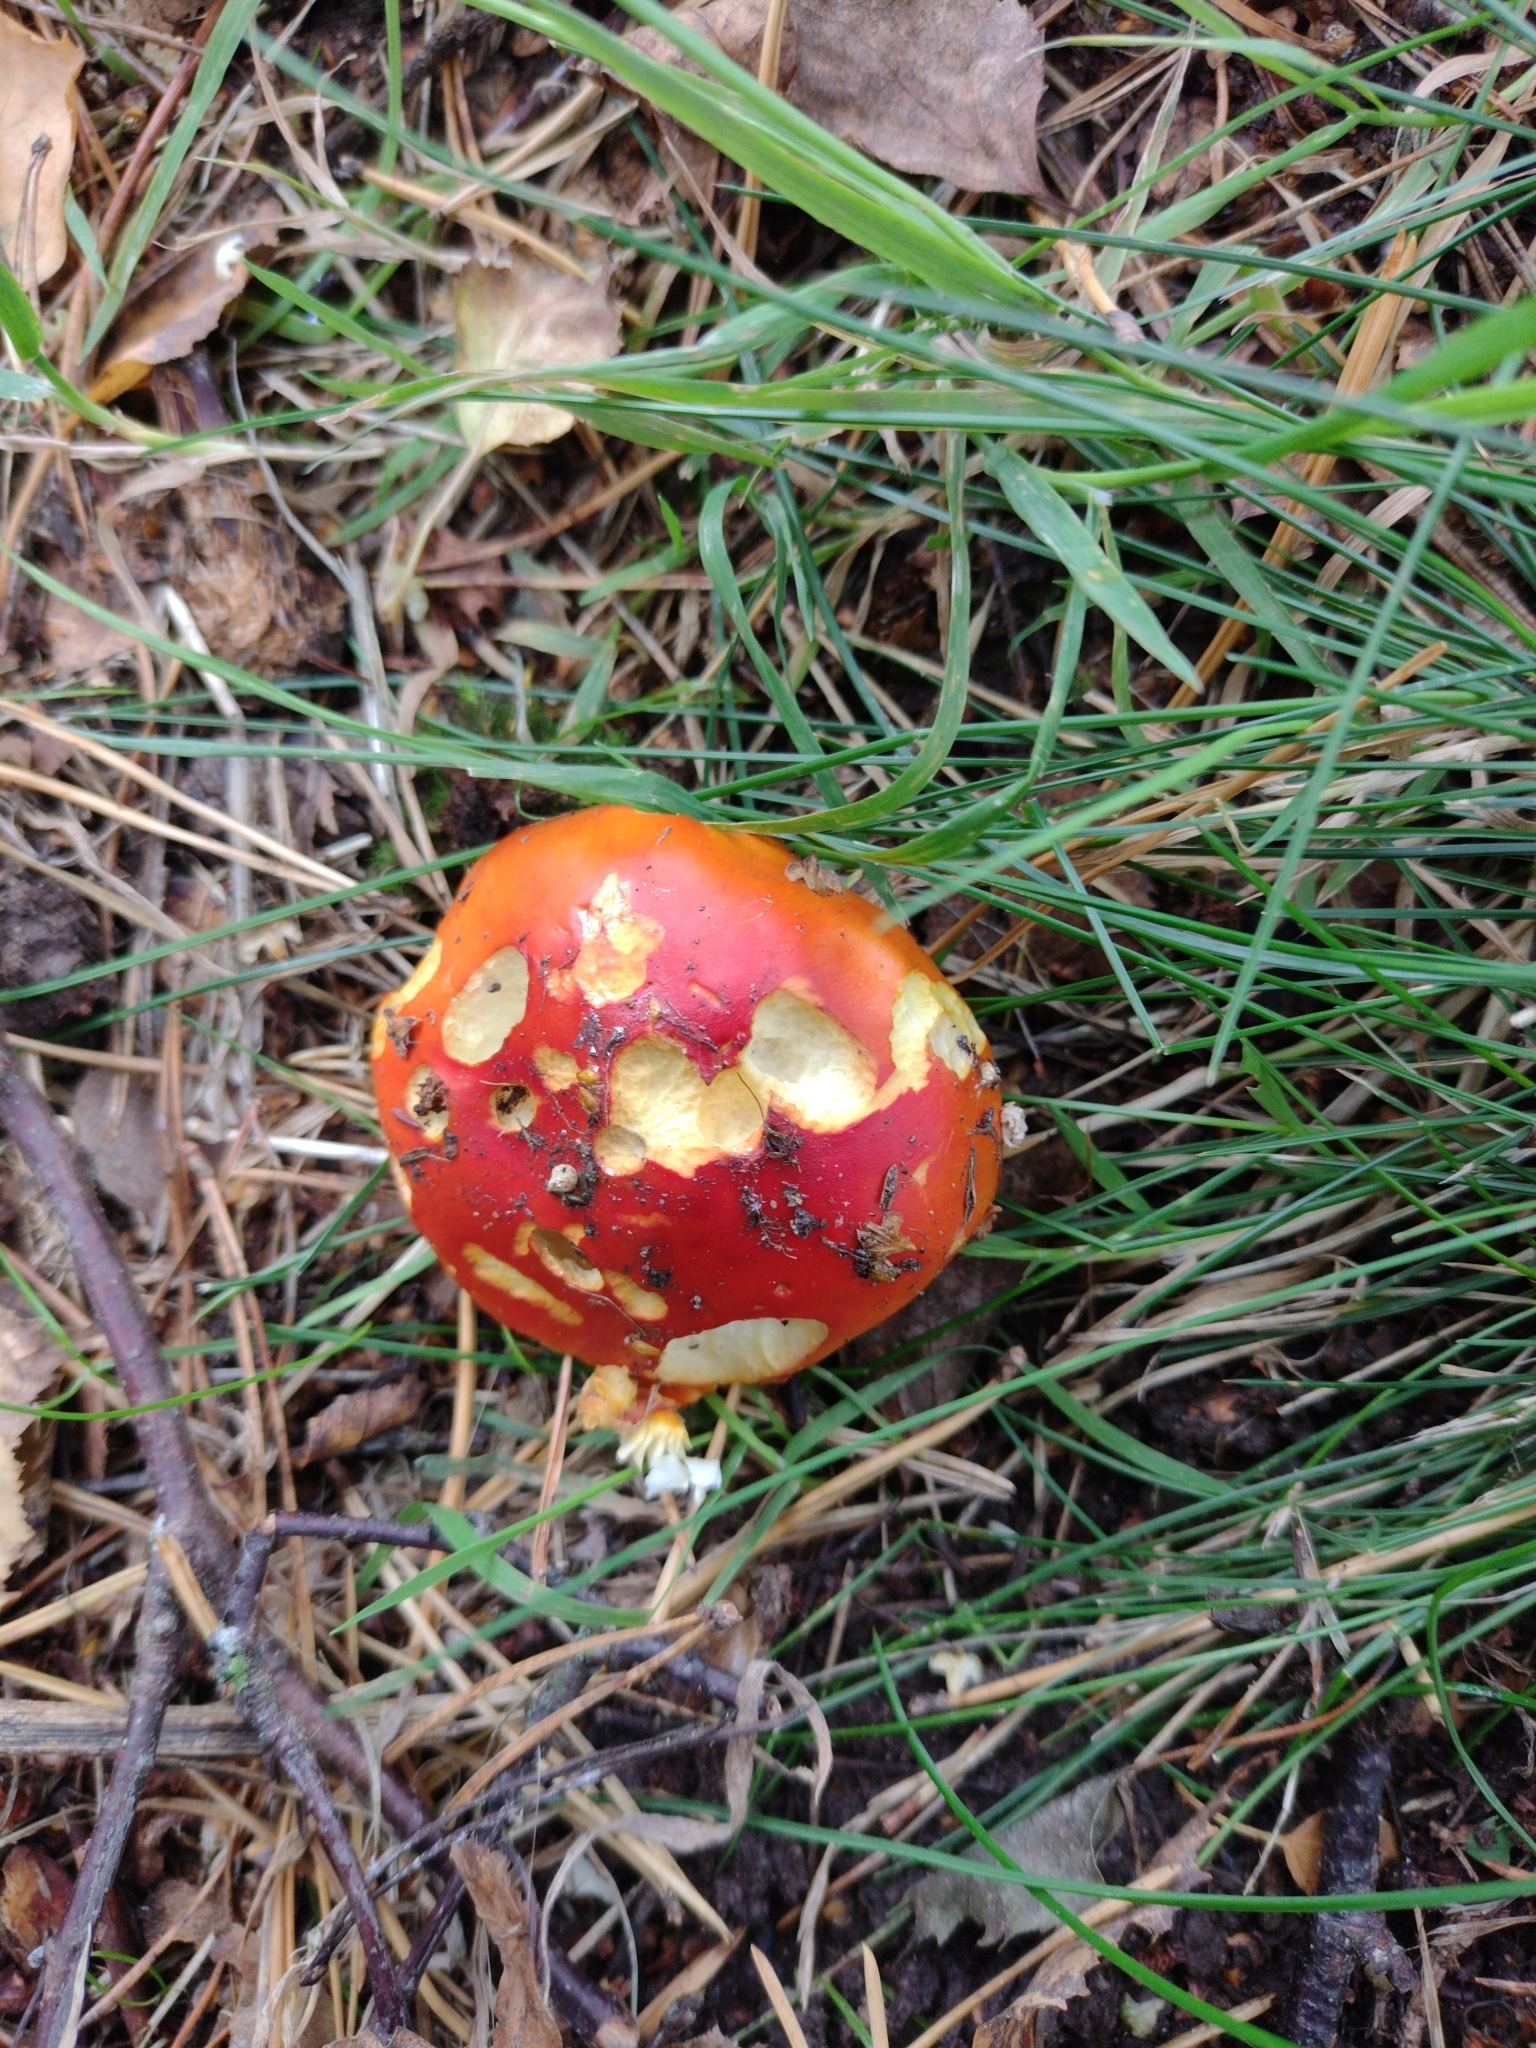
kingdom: Fungi
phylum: Basidiomycota
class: Agaricomycetes
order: Agaricales
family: Amanitaceae
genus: Amanita
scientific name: Amanita muscaria
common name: Fly agaric
